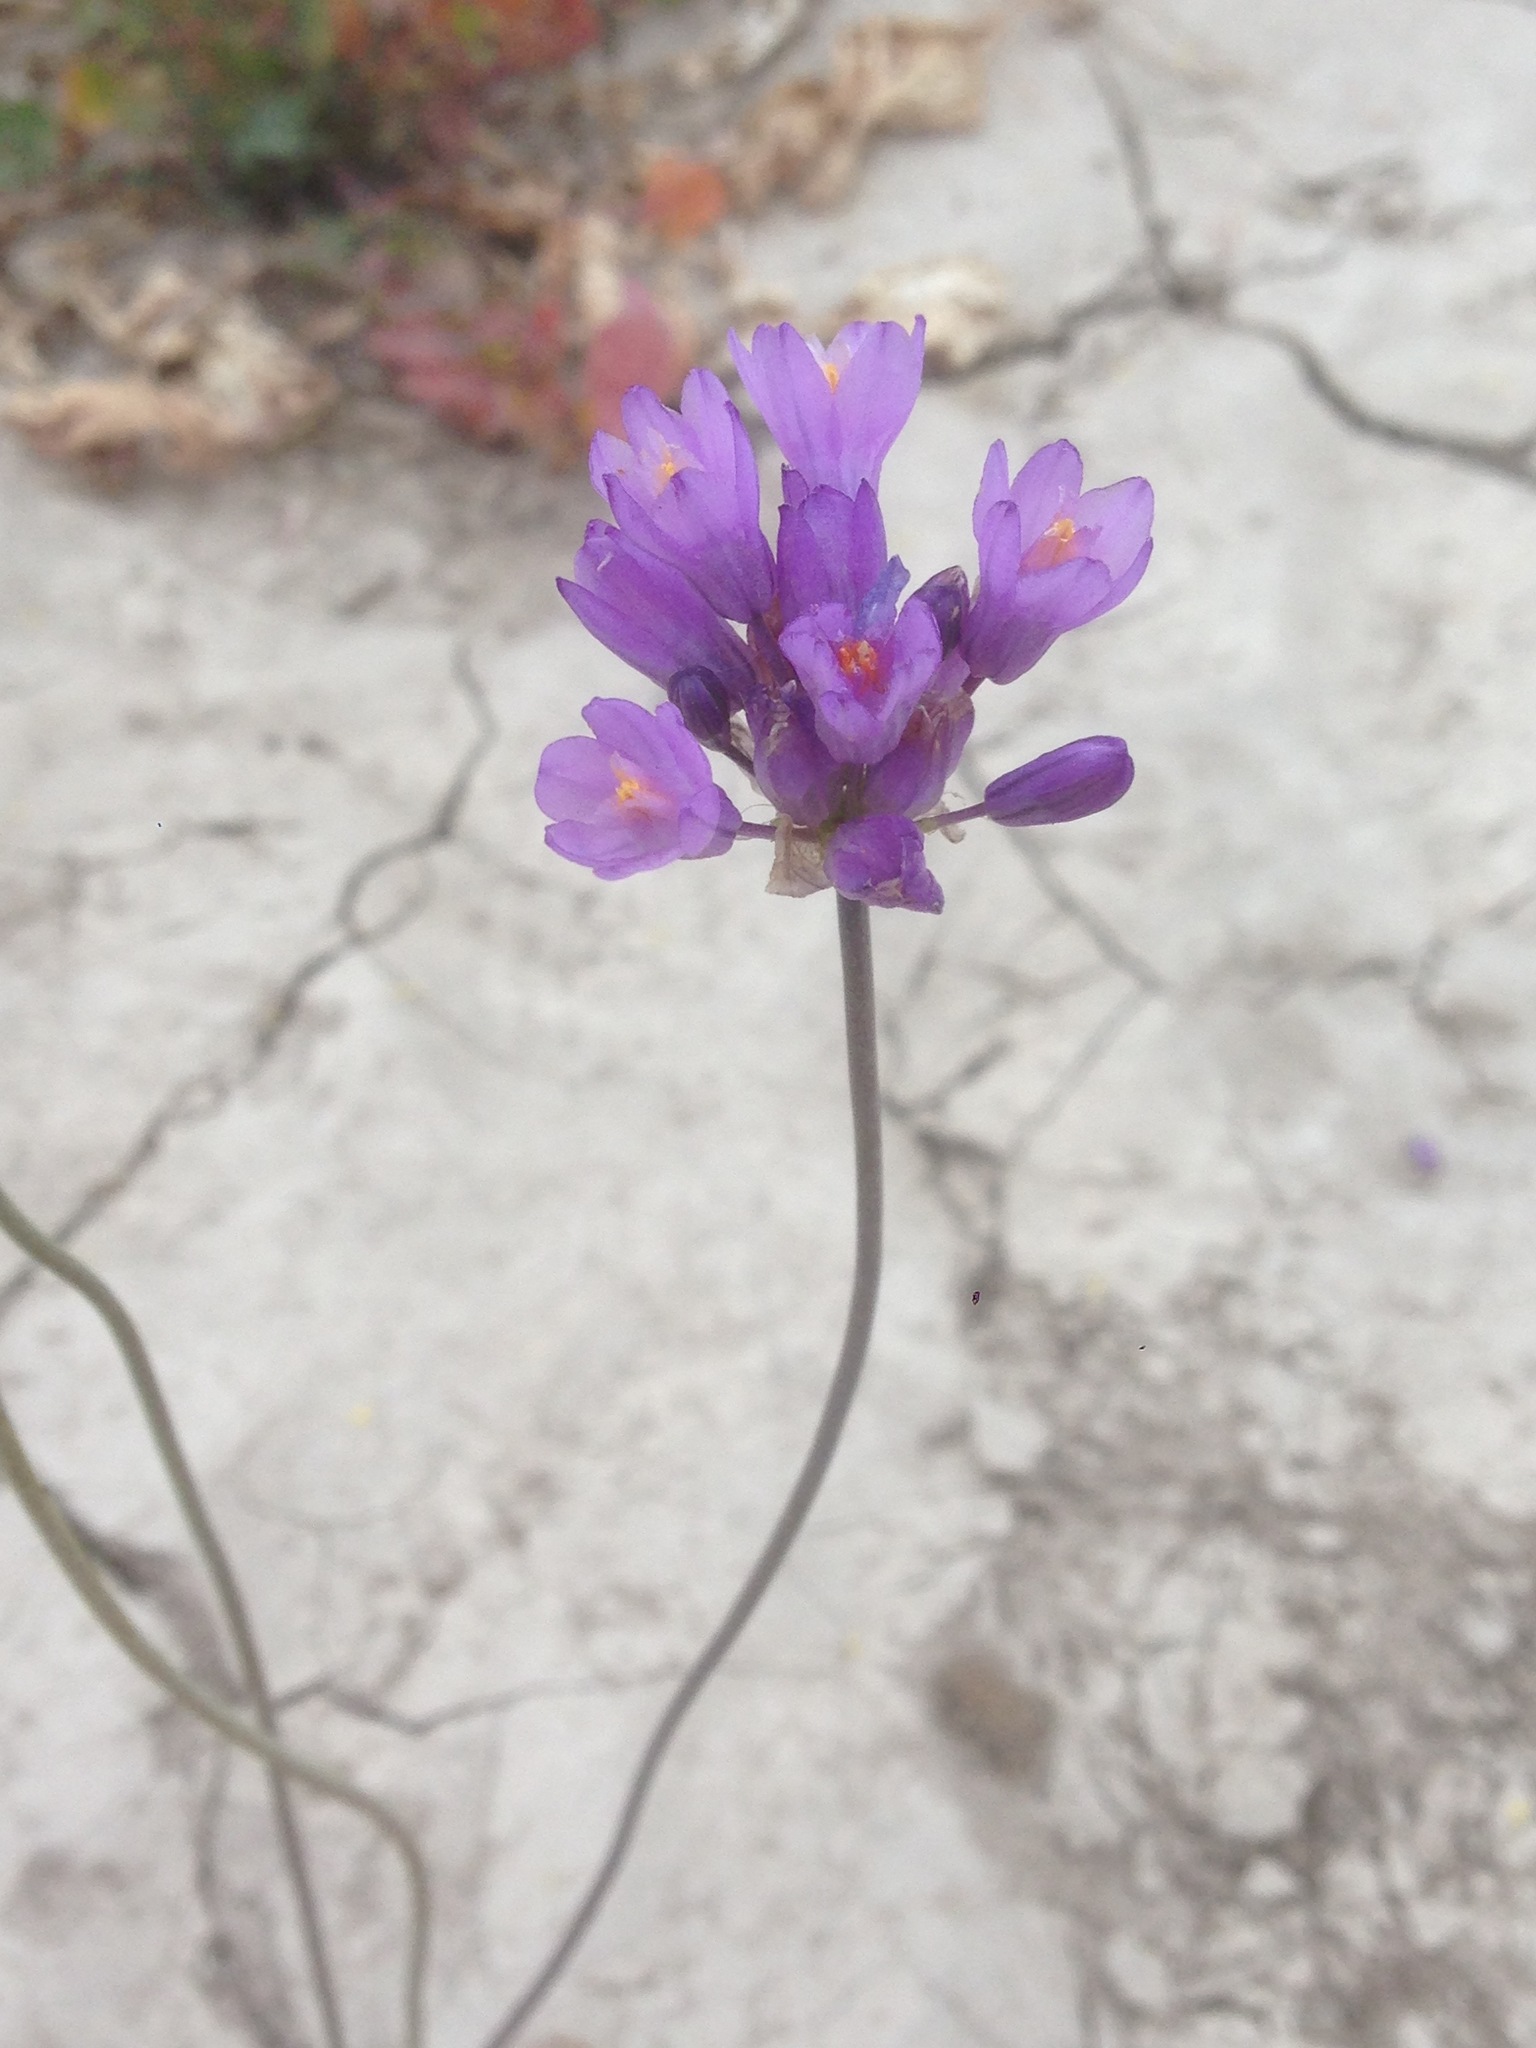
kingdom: Plantae
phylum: Tracheophyta
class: Liliopsida
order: Asparagales
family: Asparagaceae
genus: Dipterostemon
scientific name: Dipterostemon capitatus
